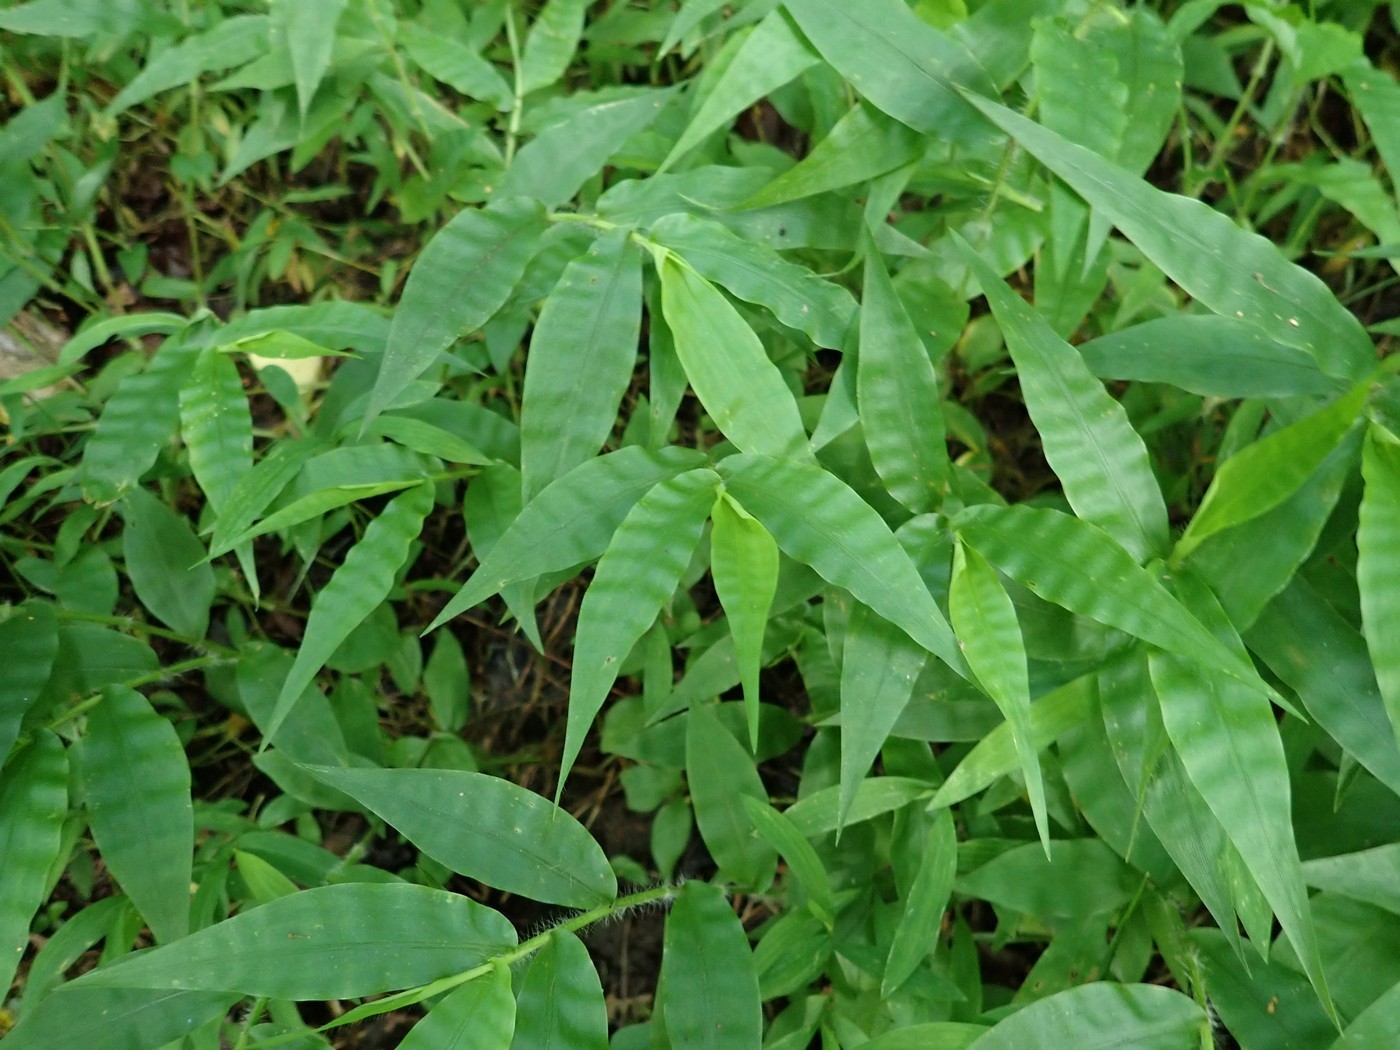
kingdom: Plantae
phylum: Tracheophyta
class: Liliopsida
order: Poales
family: Poaceae
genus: Oplismenus
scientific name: Oplismenus undulatifolius
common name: Wavyleaf basketgrass
